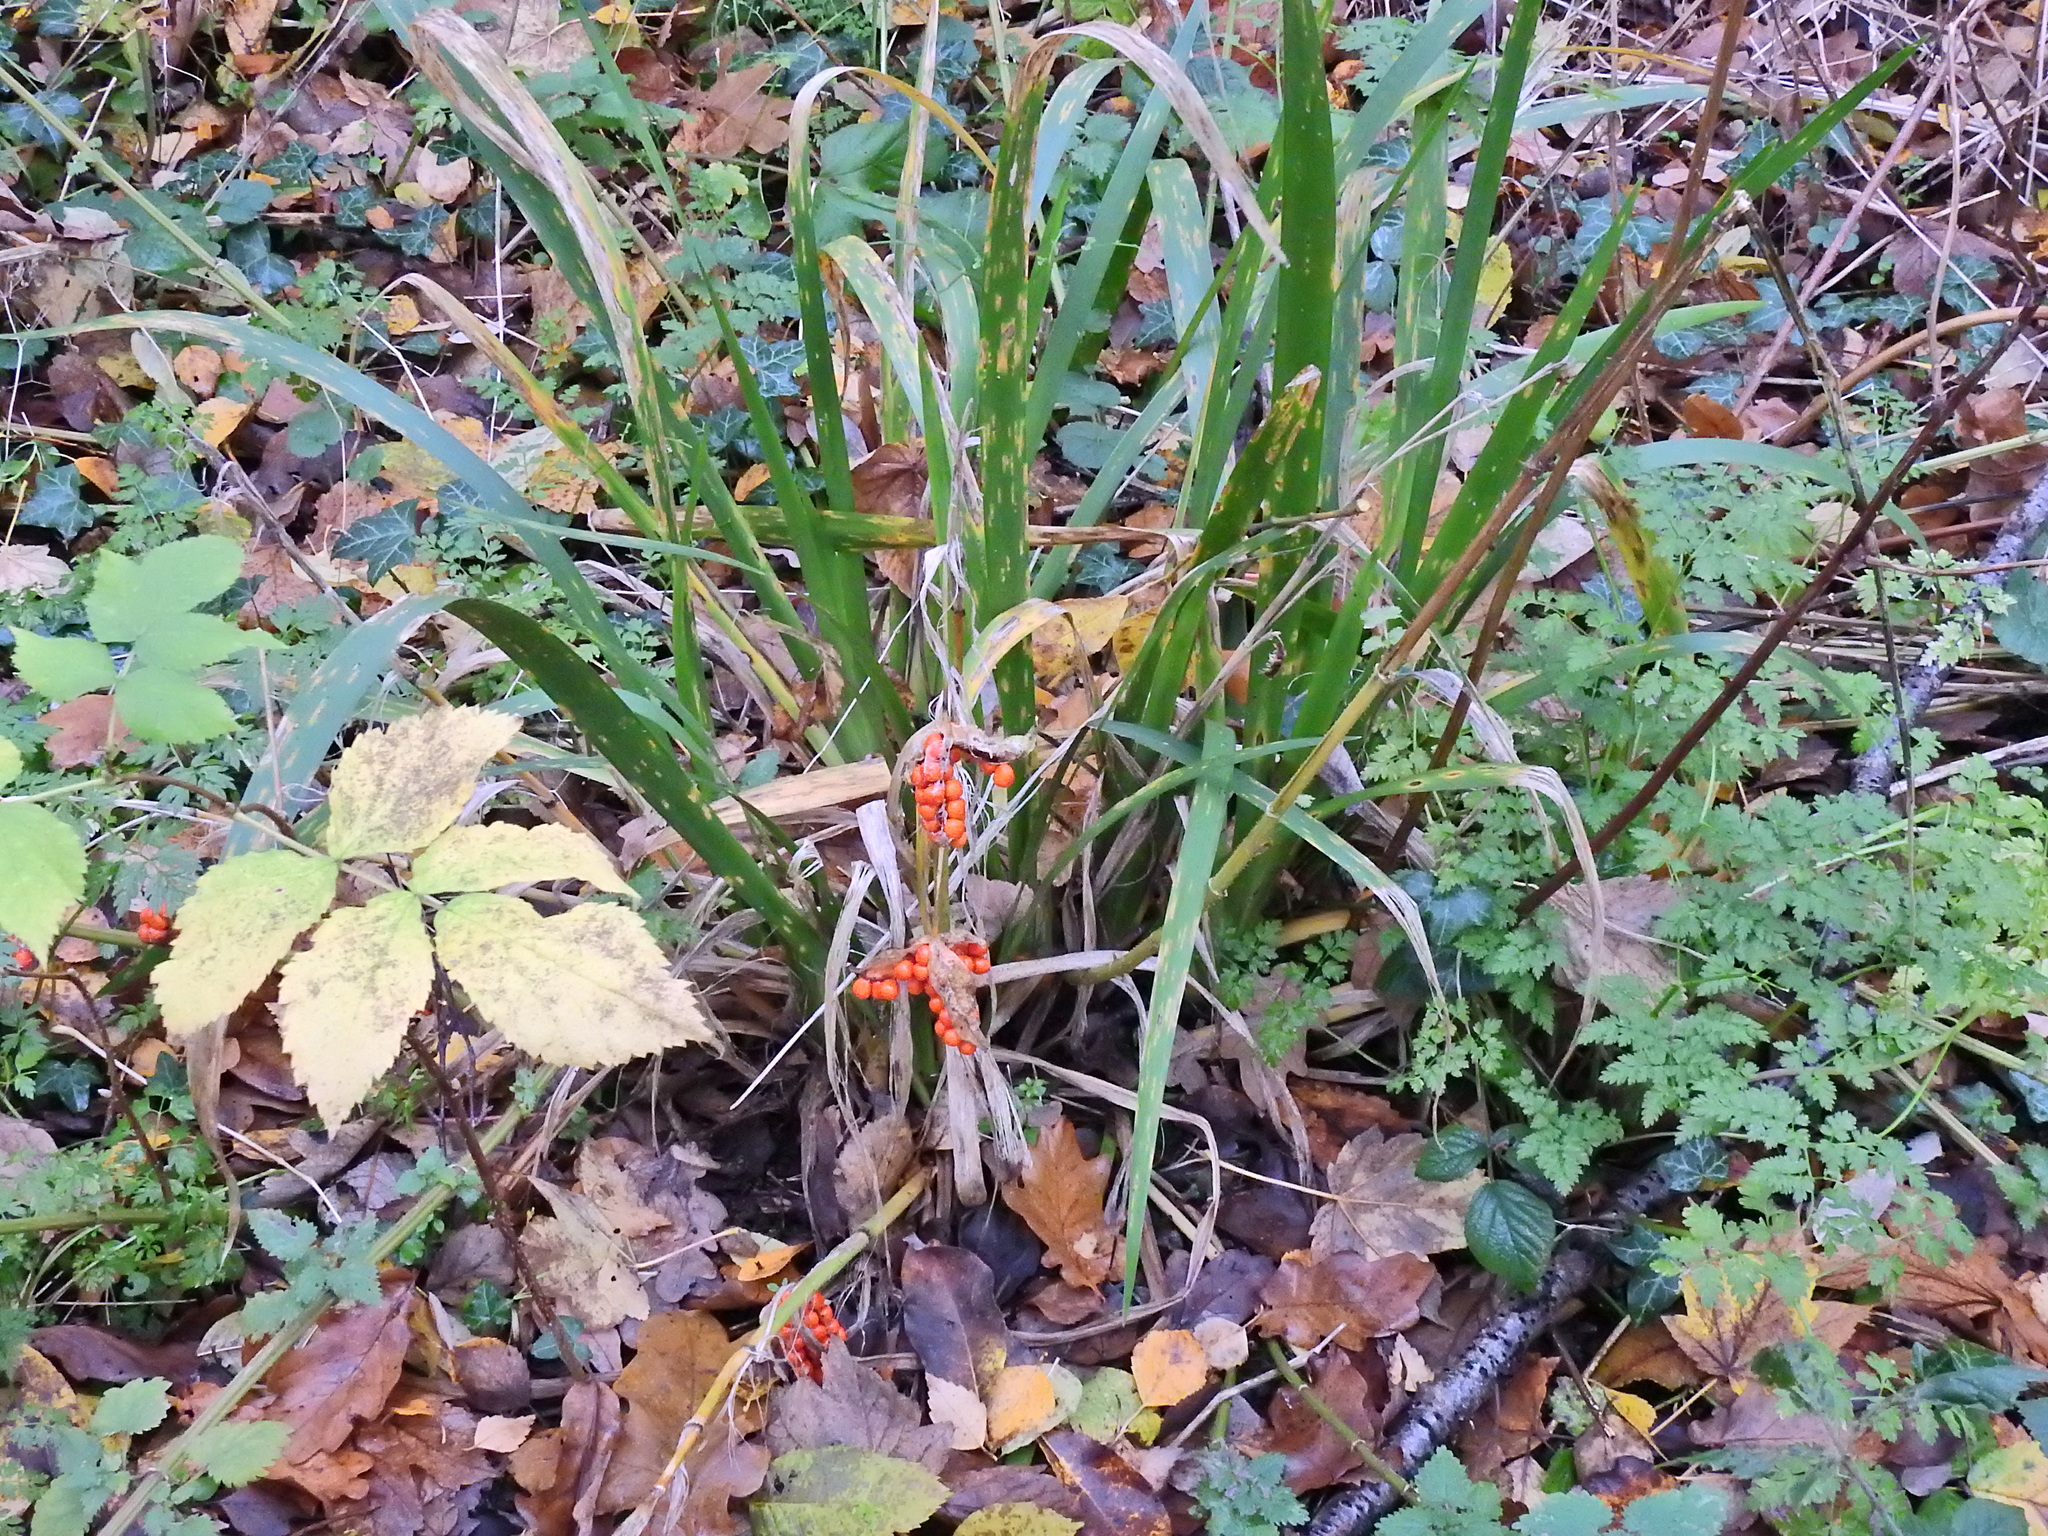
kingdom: Plantae
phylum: Tracheophyta
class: Liliopsida
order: Asparagales
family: Iridaceae
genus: Iris
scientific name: Iris foetidissima
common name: Stinking iris
